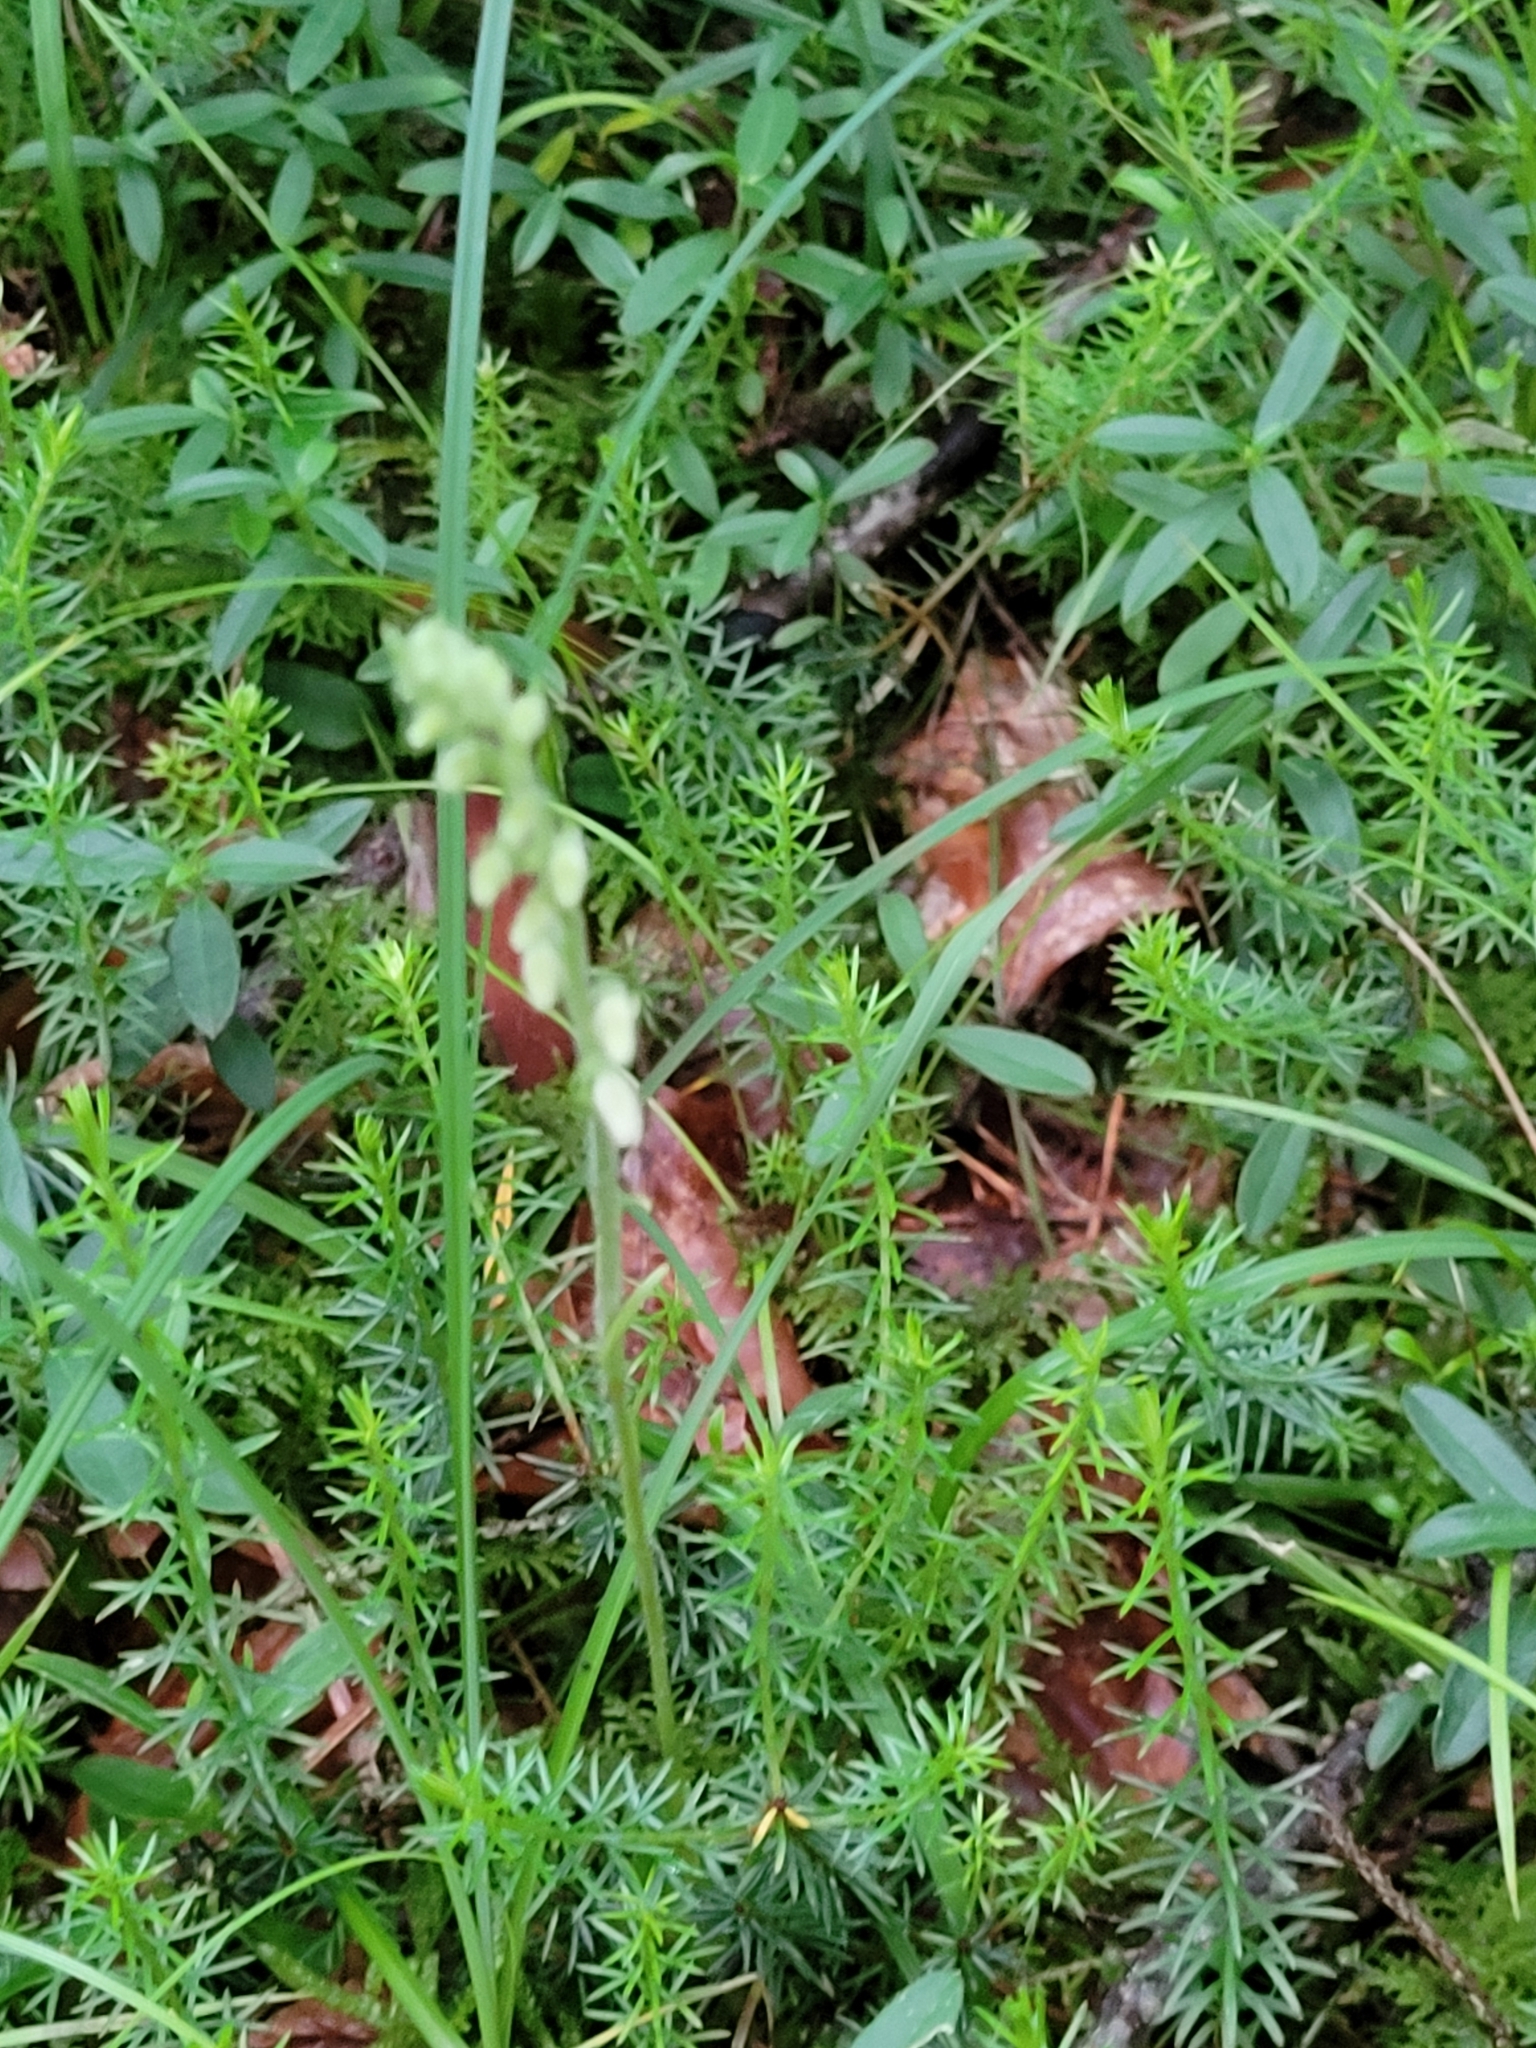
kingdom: Plantae
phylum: Tracheophyta
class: Liliopsida
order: Asparagales
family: Orchidaceae
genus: Goodyera
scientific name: Goodyera repens
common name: Creeping lady's-tresses
